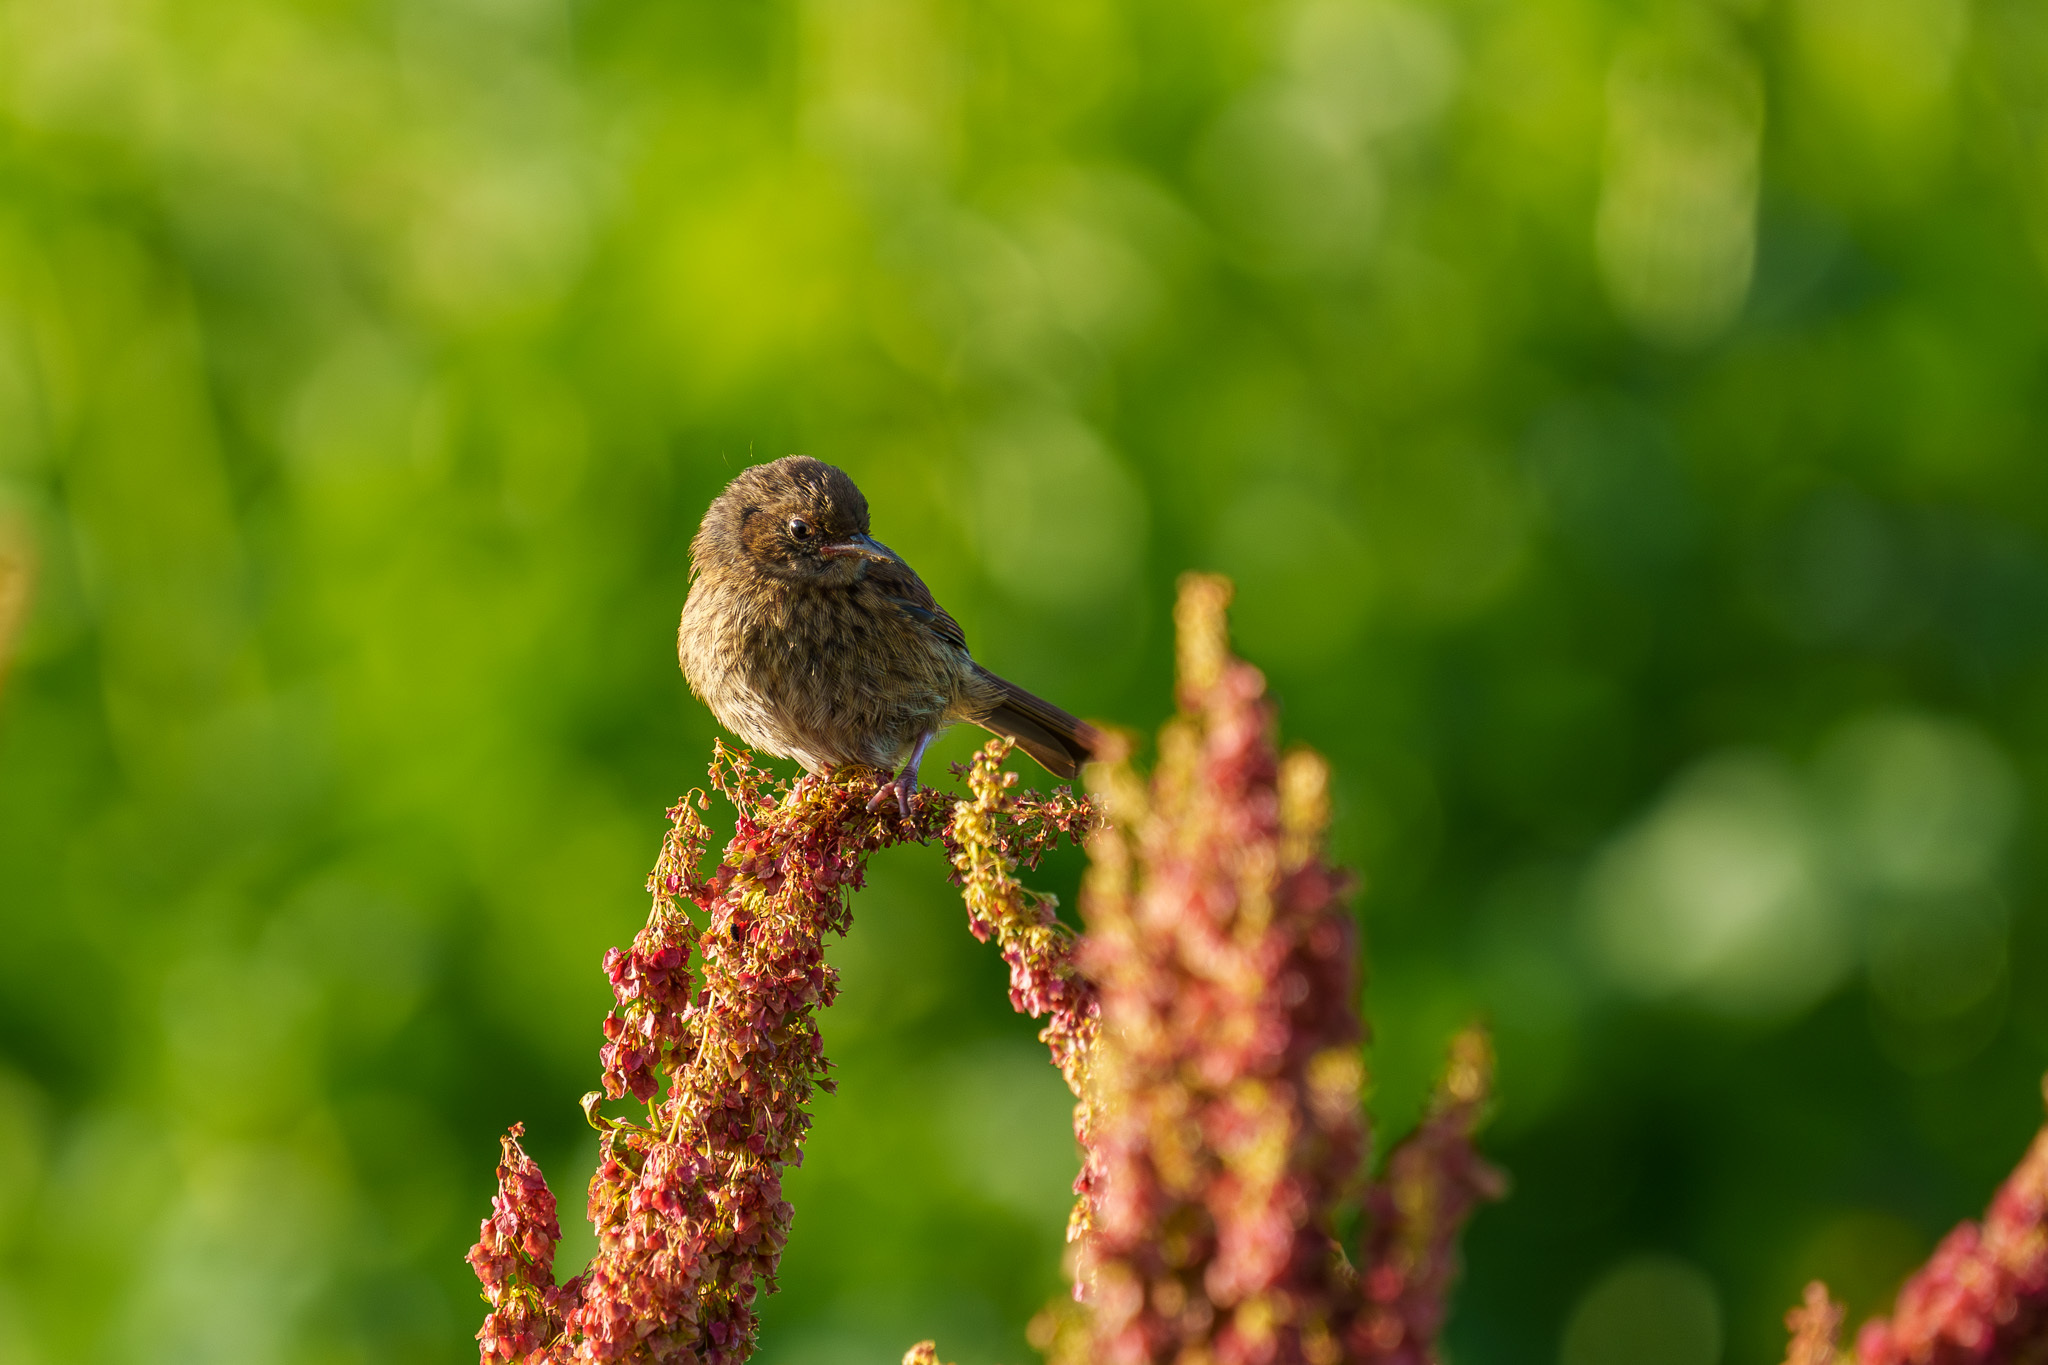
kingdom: Animalia
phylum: Chordata
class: Aves
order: Passeriformes
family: Muscicapidae
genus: Saxicola
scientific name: Saxicola rubetra
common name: Whinchat
